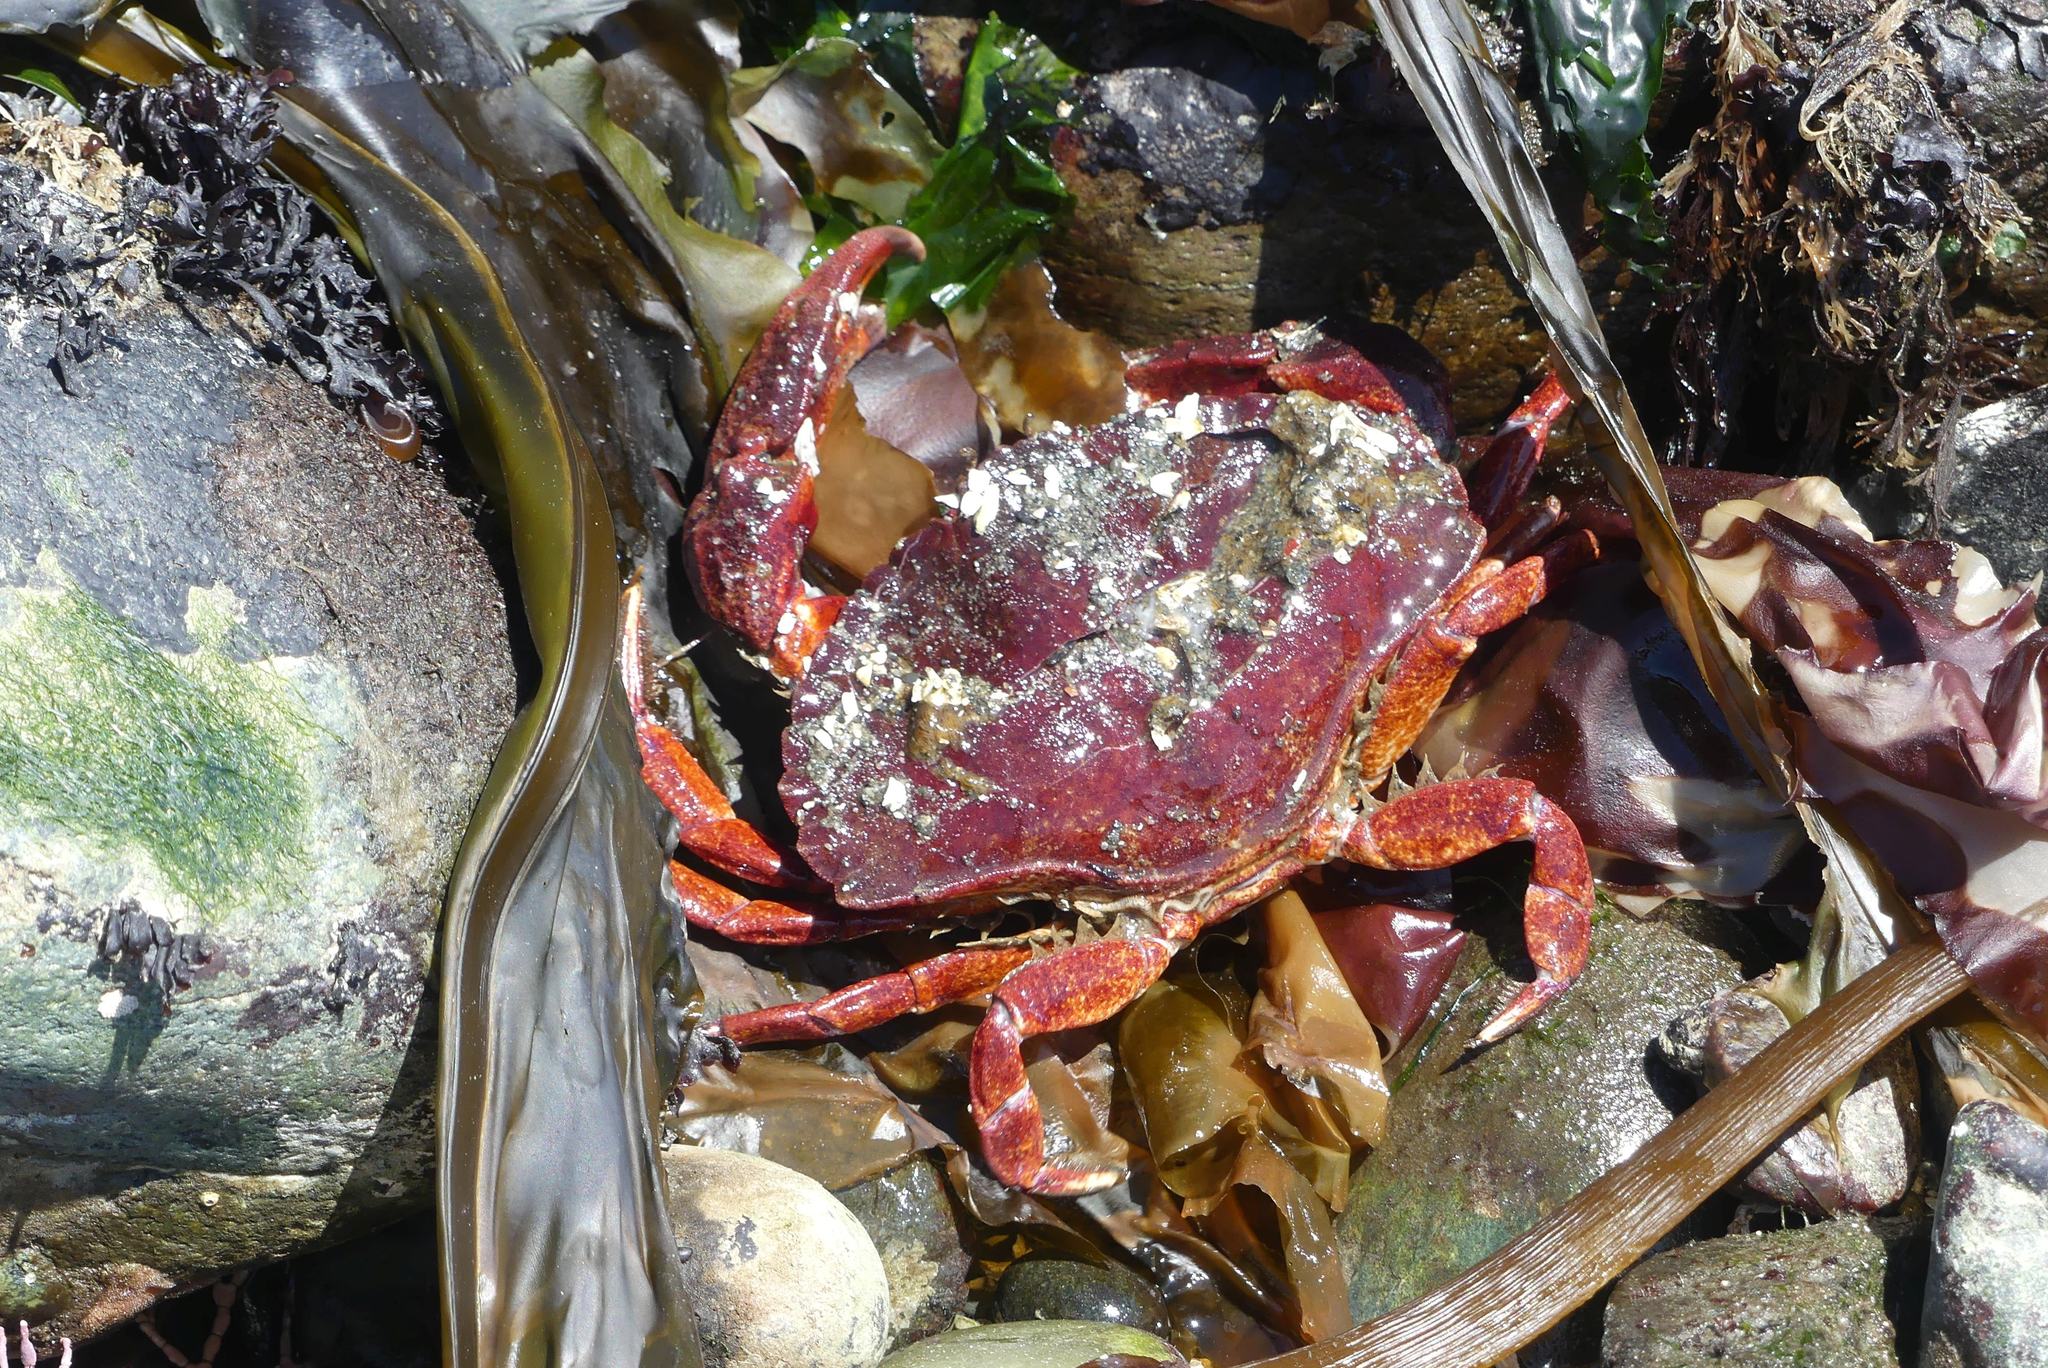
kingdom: Animalia
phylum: Arthropoda
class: Malacostraca
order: Decapoda
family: Cancridae
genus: Cancer
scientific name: Cancer productus
